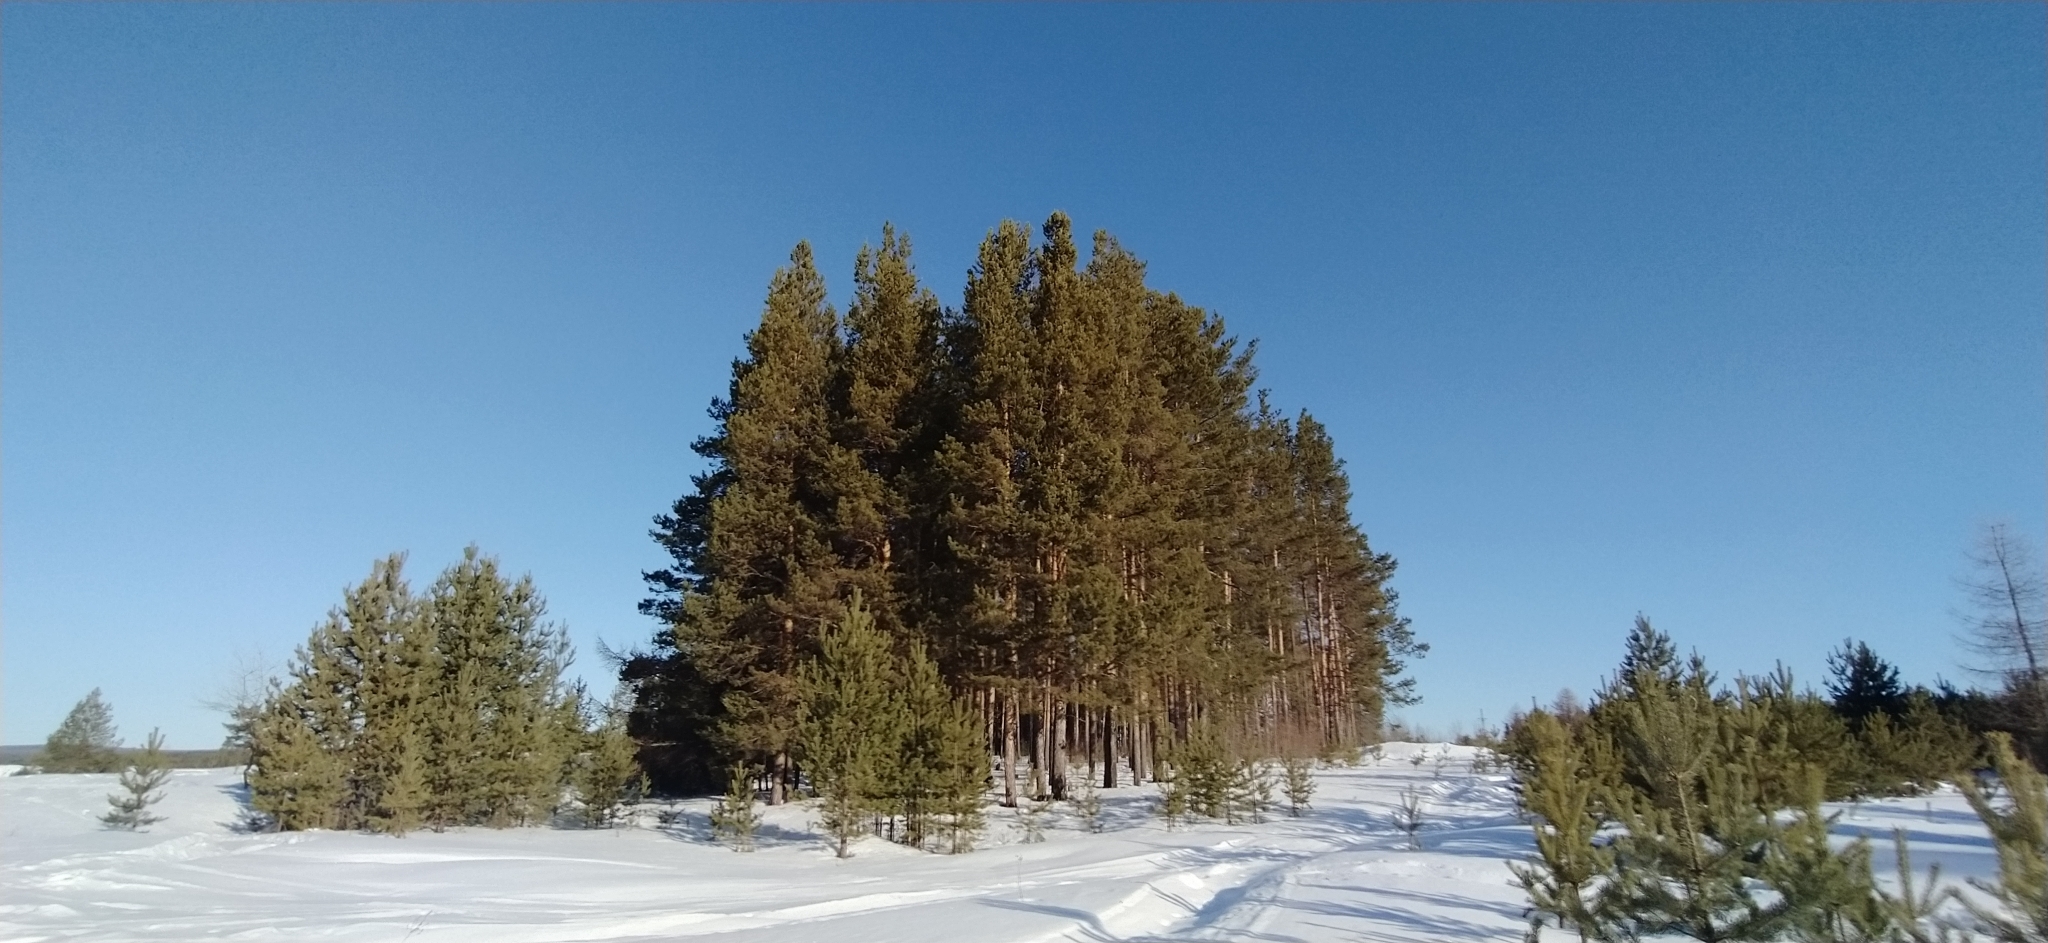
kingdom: Plantae
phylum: Tracheophyta
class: Pinopsida
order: Pinales
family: Pinaceae
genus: Pinus
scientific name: Pinus sylvestris
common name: Scots pine
